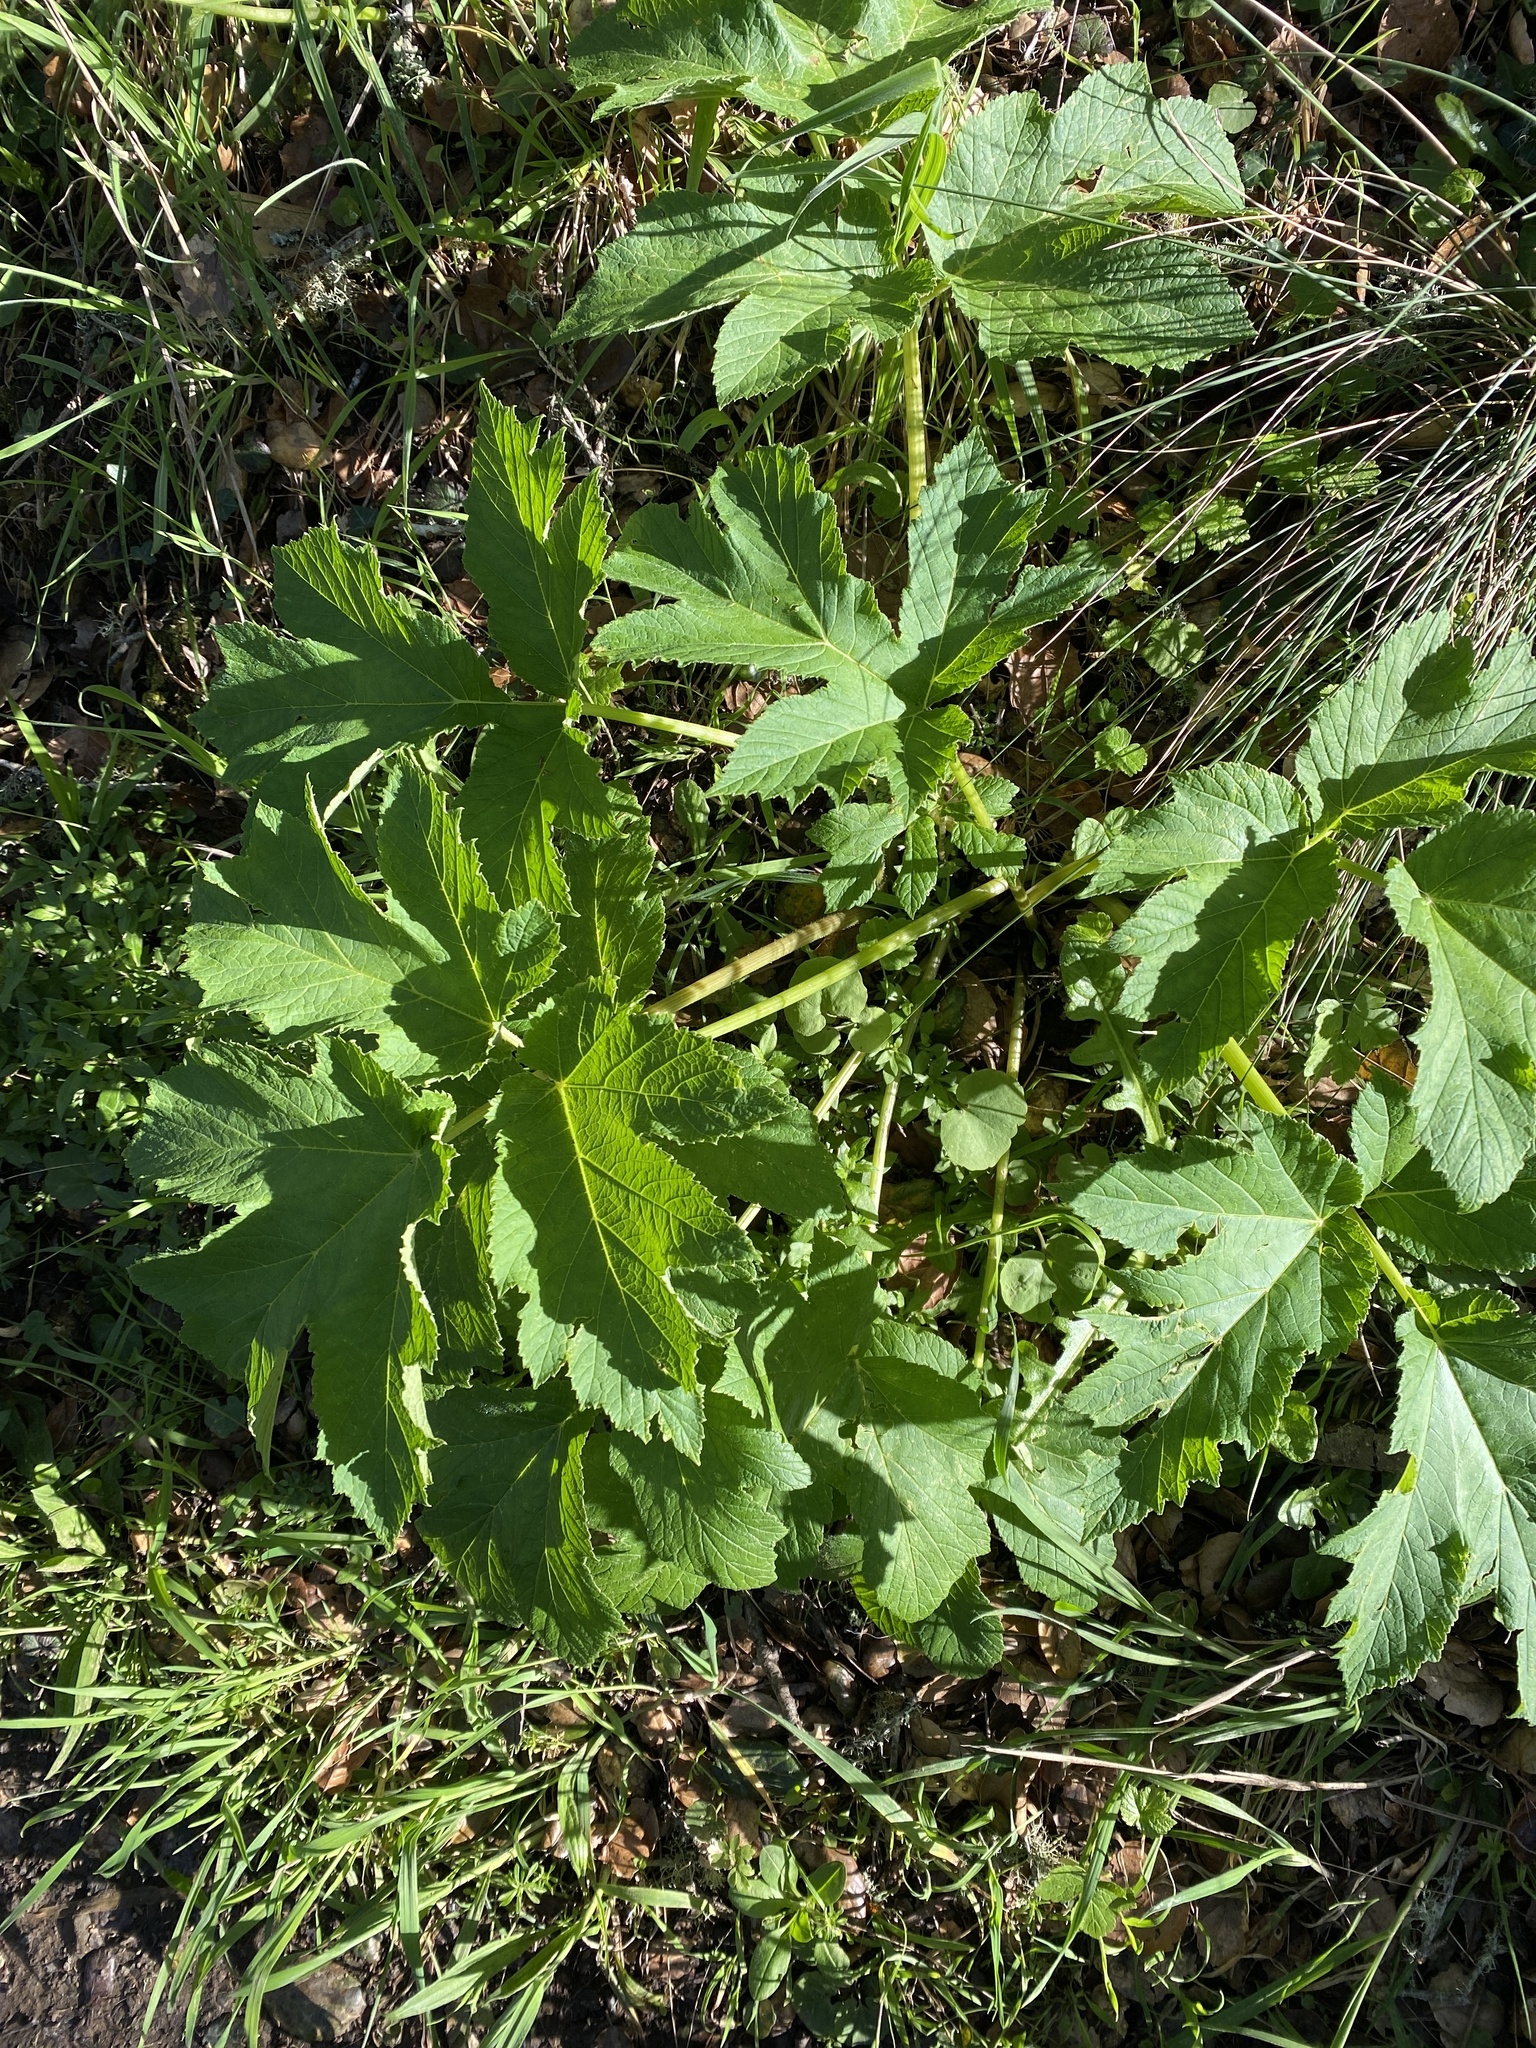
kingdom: Plantae
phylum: Tracheophyta
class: Magnoliopsida
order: Apiales
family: Apiaceae
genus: Heracleum
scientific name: Heracleum maximum
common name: American cow parsnip
